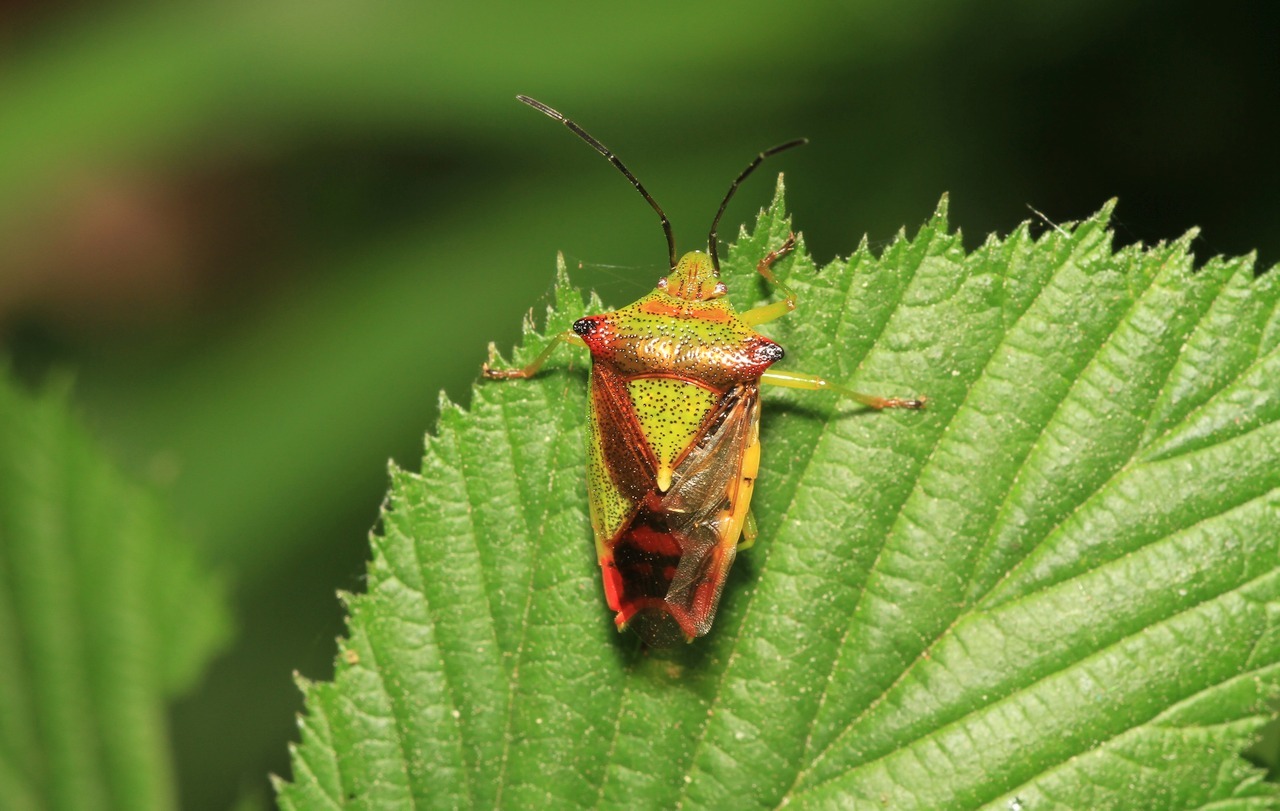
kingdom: Animalia
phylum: Arthropoda
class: Insecta
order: Hemiptera
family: Acanthosomatidae
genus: Acanthosoma
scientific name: Acanthosoma haemorrhoidale
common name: Hawthorn shieldbug
